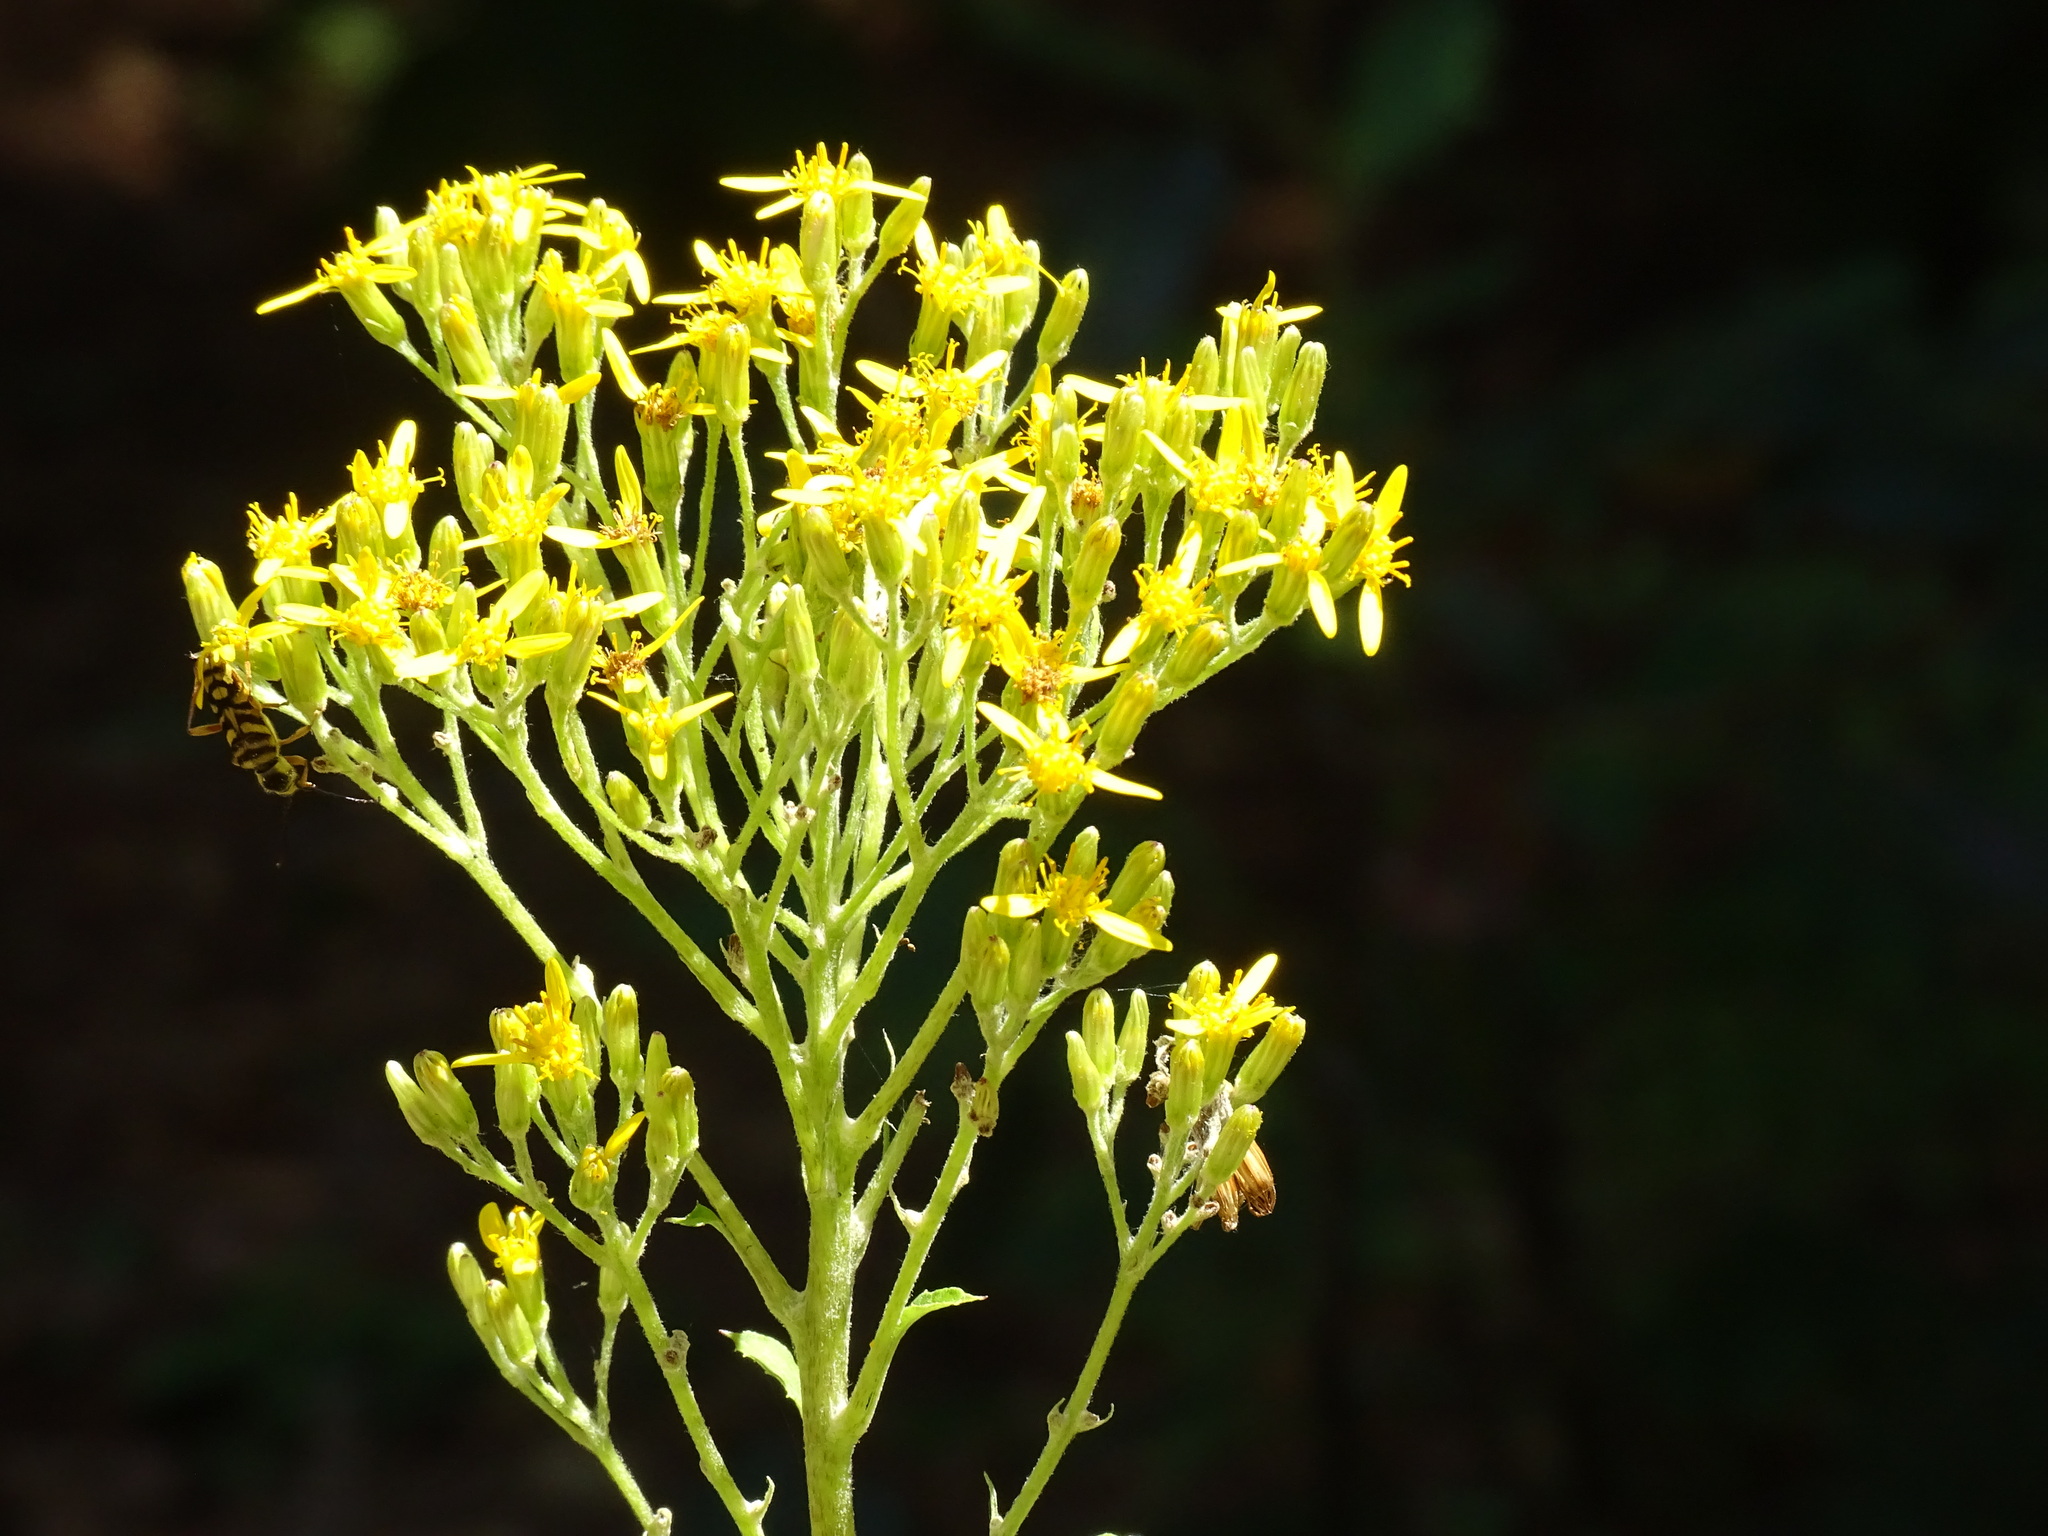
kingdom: Plantae
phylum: Tracheophyta
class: Magnoliopsida
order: Asterales
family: Asteraceae
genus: Roldana
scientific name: Roldana candicans
